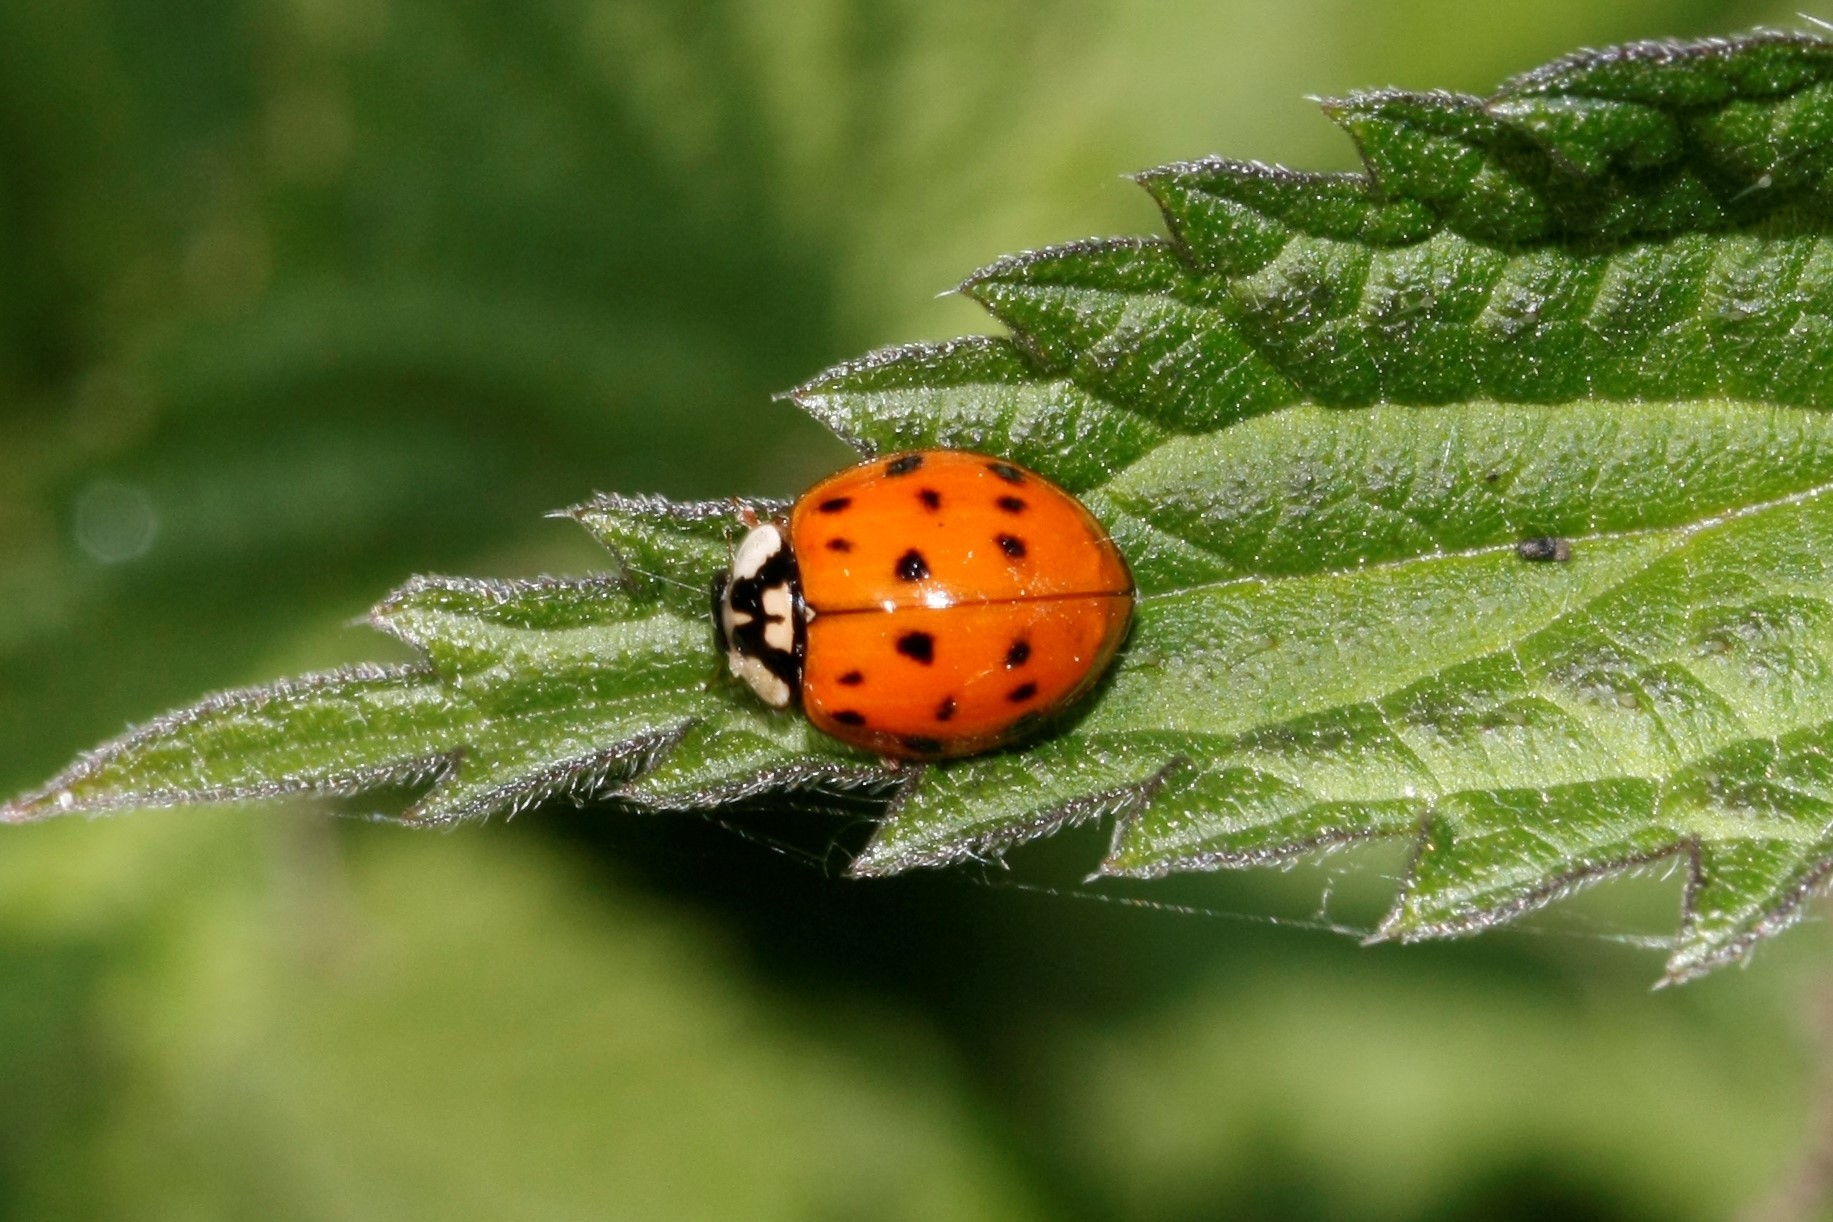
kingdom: Animalia
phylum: Arthropoda
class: Insecta
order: Coleoptera
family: Coccinellidae
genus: Harmonia
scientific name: Harmonia axyridis
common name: Harlequin ladybird
